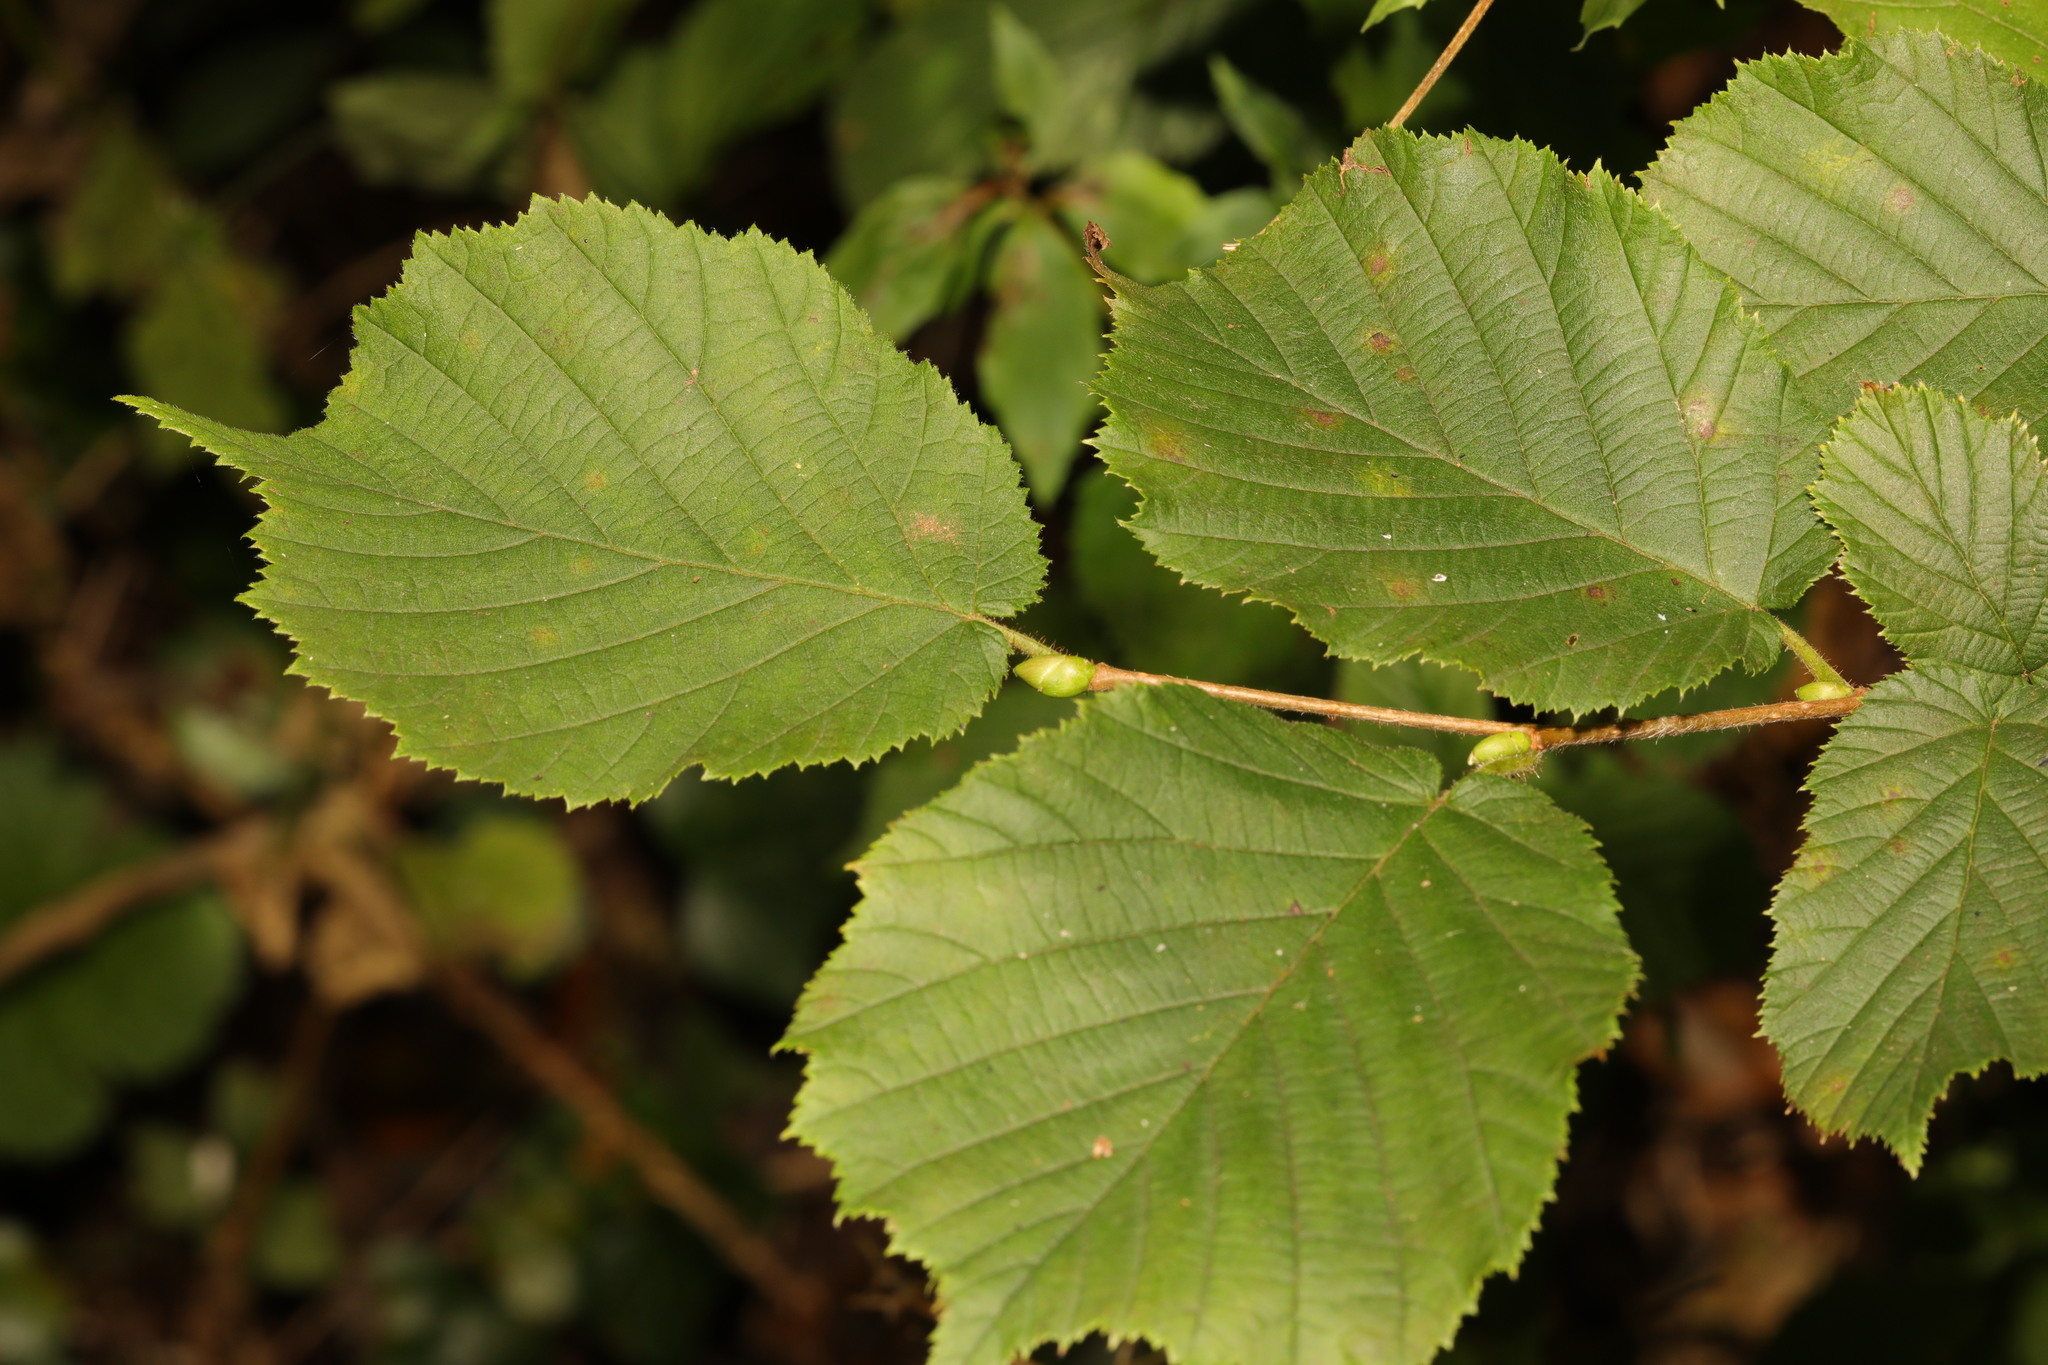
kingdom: Plantae
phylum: Tracheophyta
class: Magnoliopsida
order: Fagales
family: Betulaceae
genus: Corylus
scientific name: Corylus avellana
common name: European hazel
